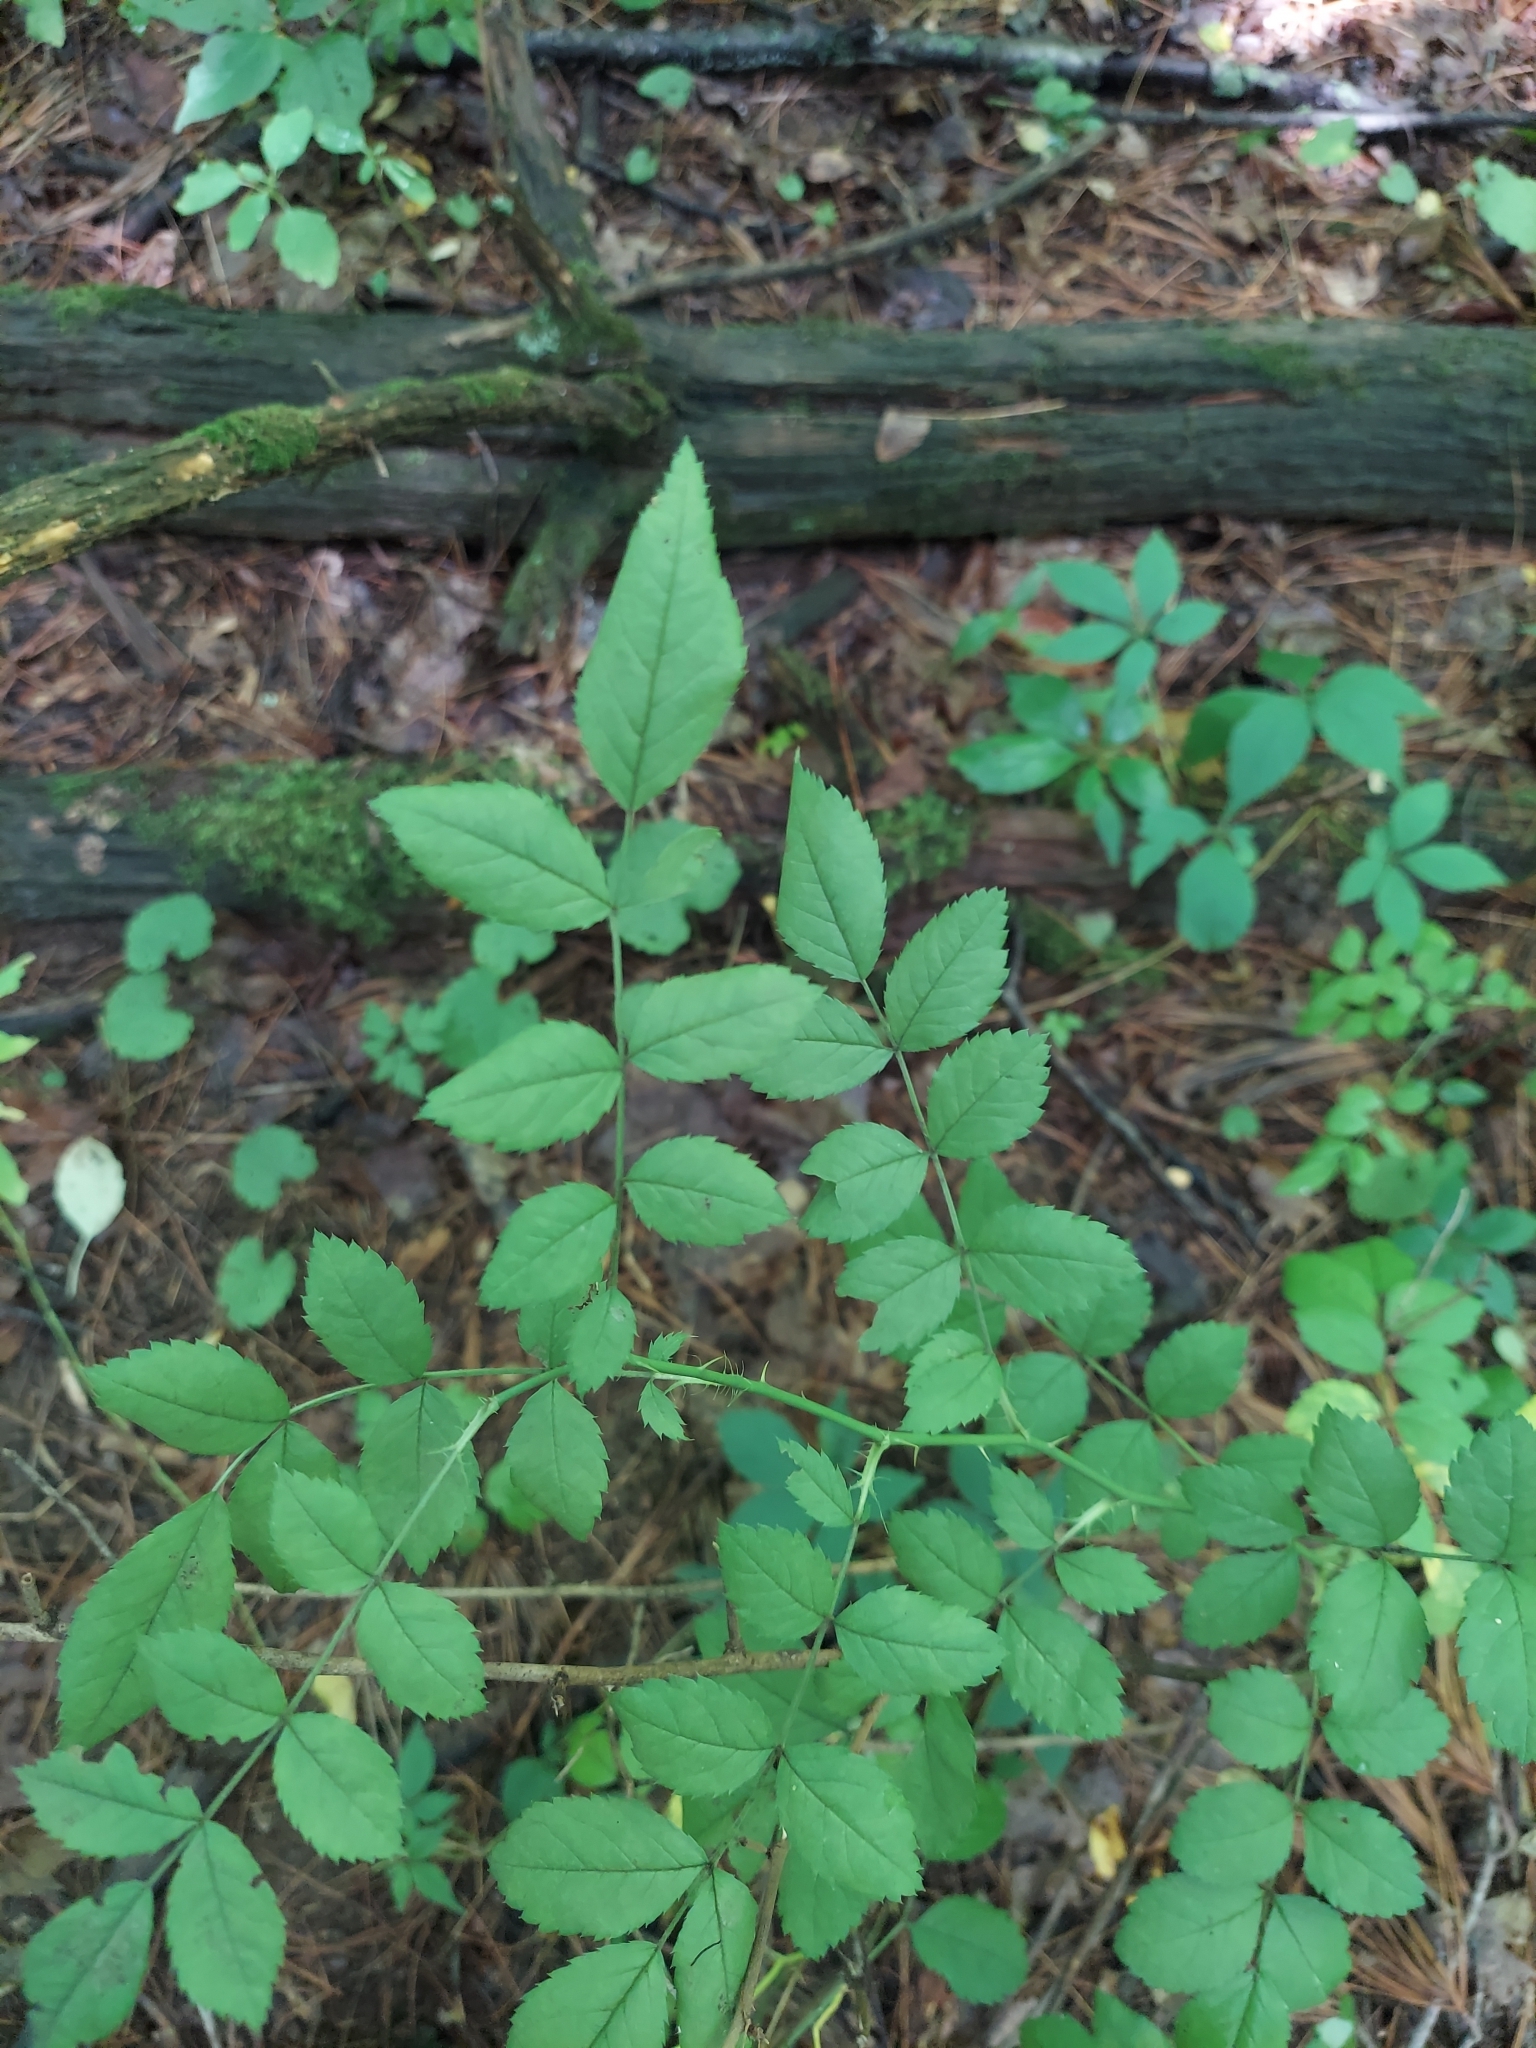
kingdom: Plantae
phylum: Tracheophyta
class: Magnoliopsida
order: Rosales
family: Rosaceae
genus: Rosa
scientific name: Rosa multiflora
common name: Multiflora rose
